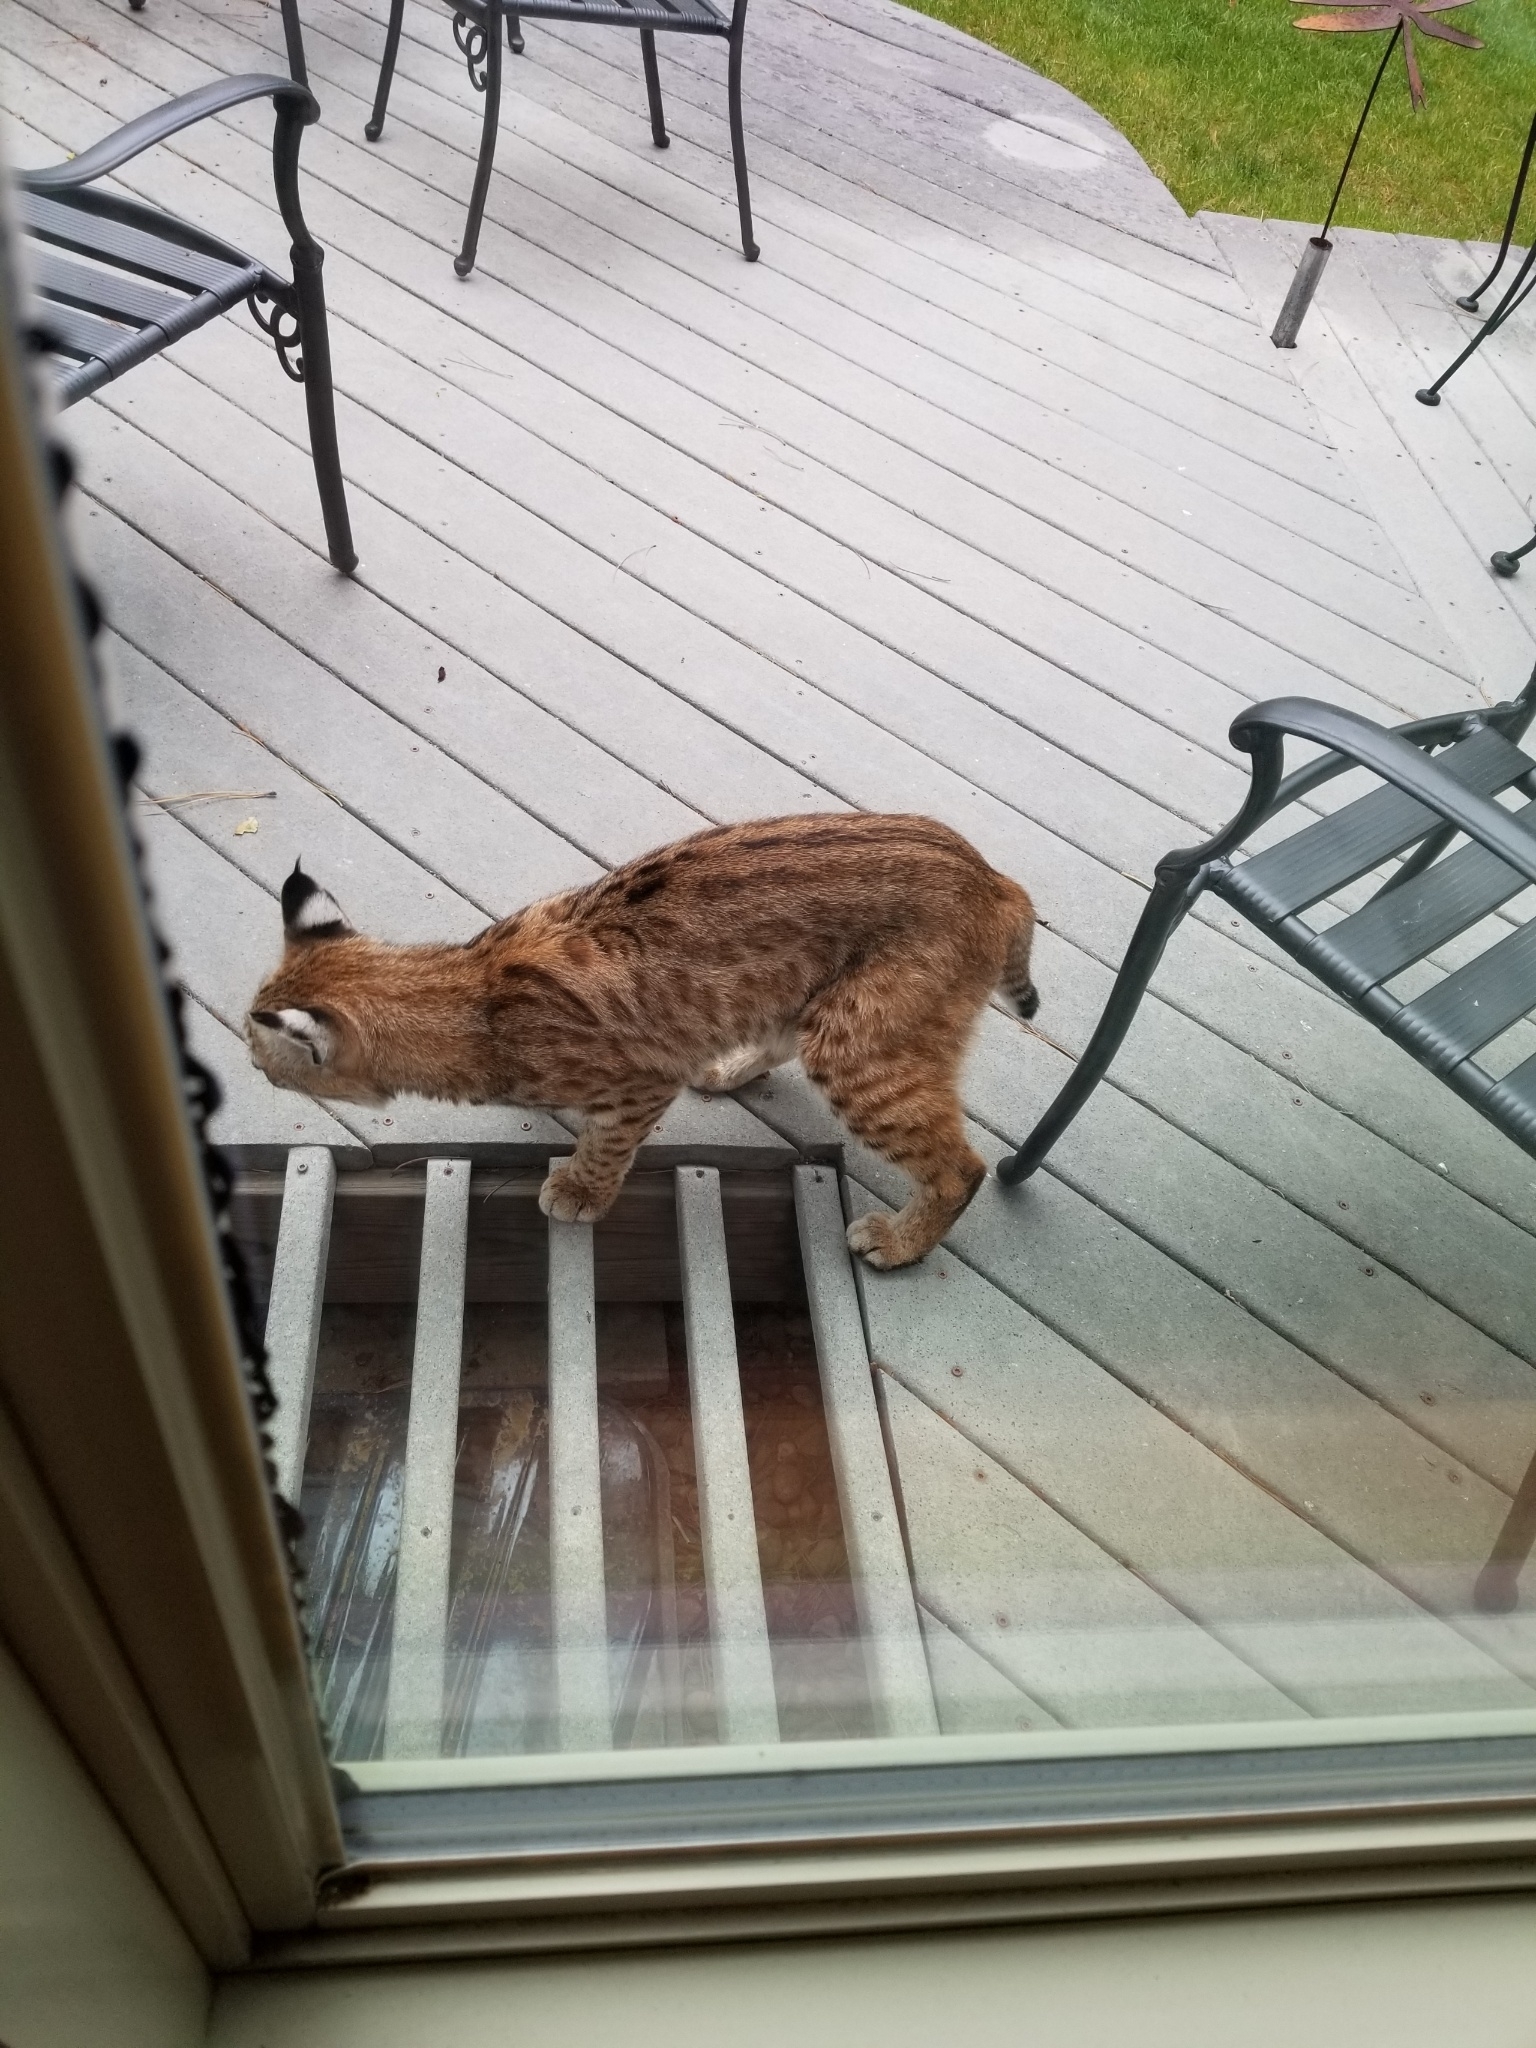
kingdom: Animalia
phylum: Chordata
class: Mammalia
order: Carnivora
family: Felidae
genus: Lynx
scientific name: Lynx rufus
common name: Bobcat
